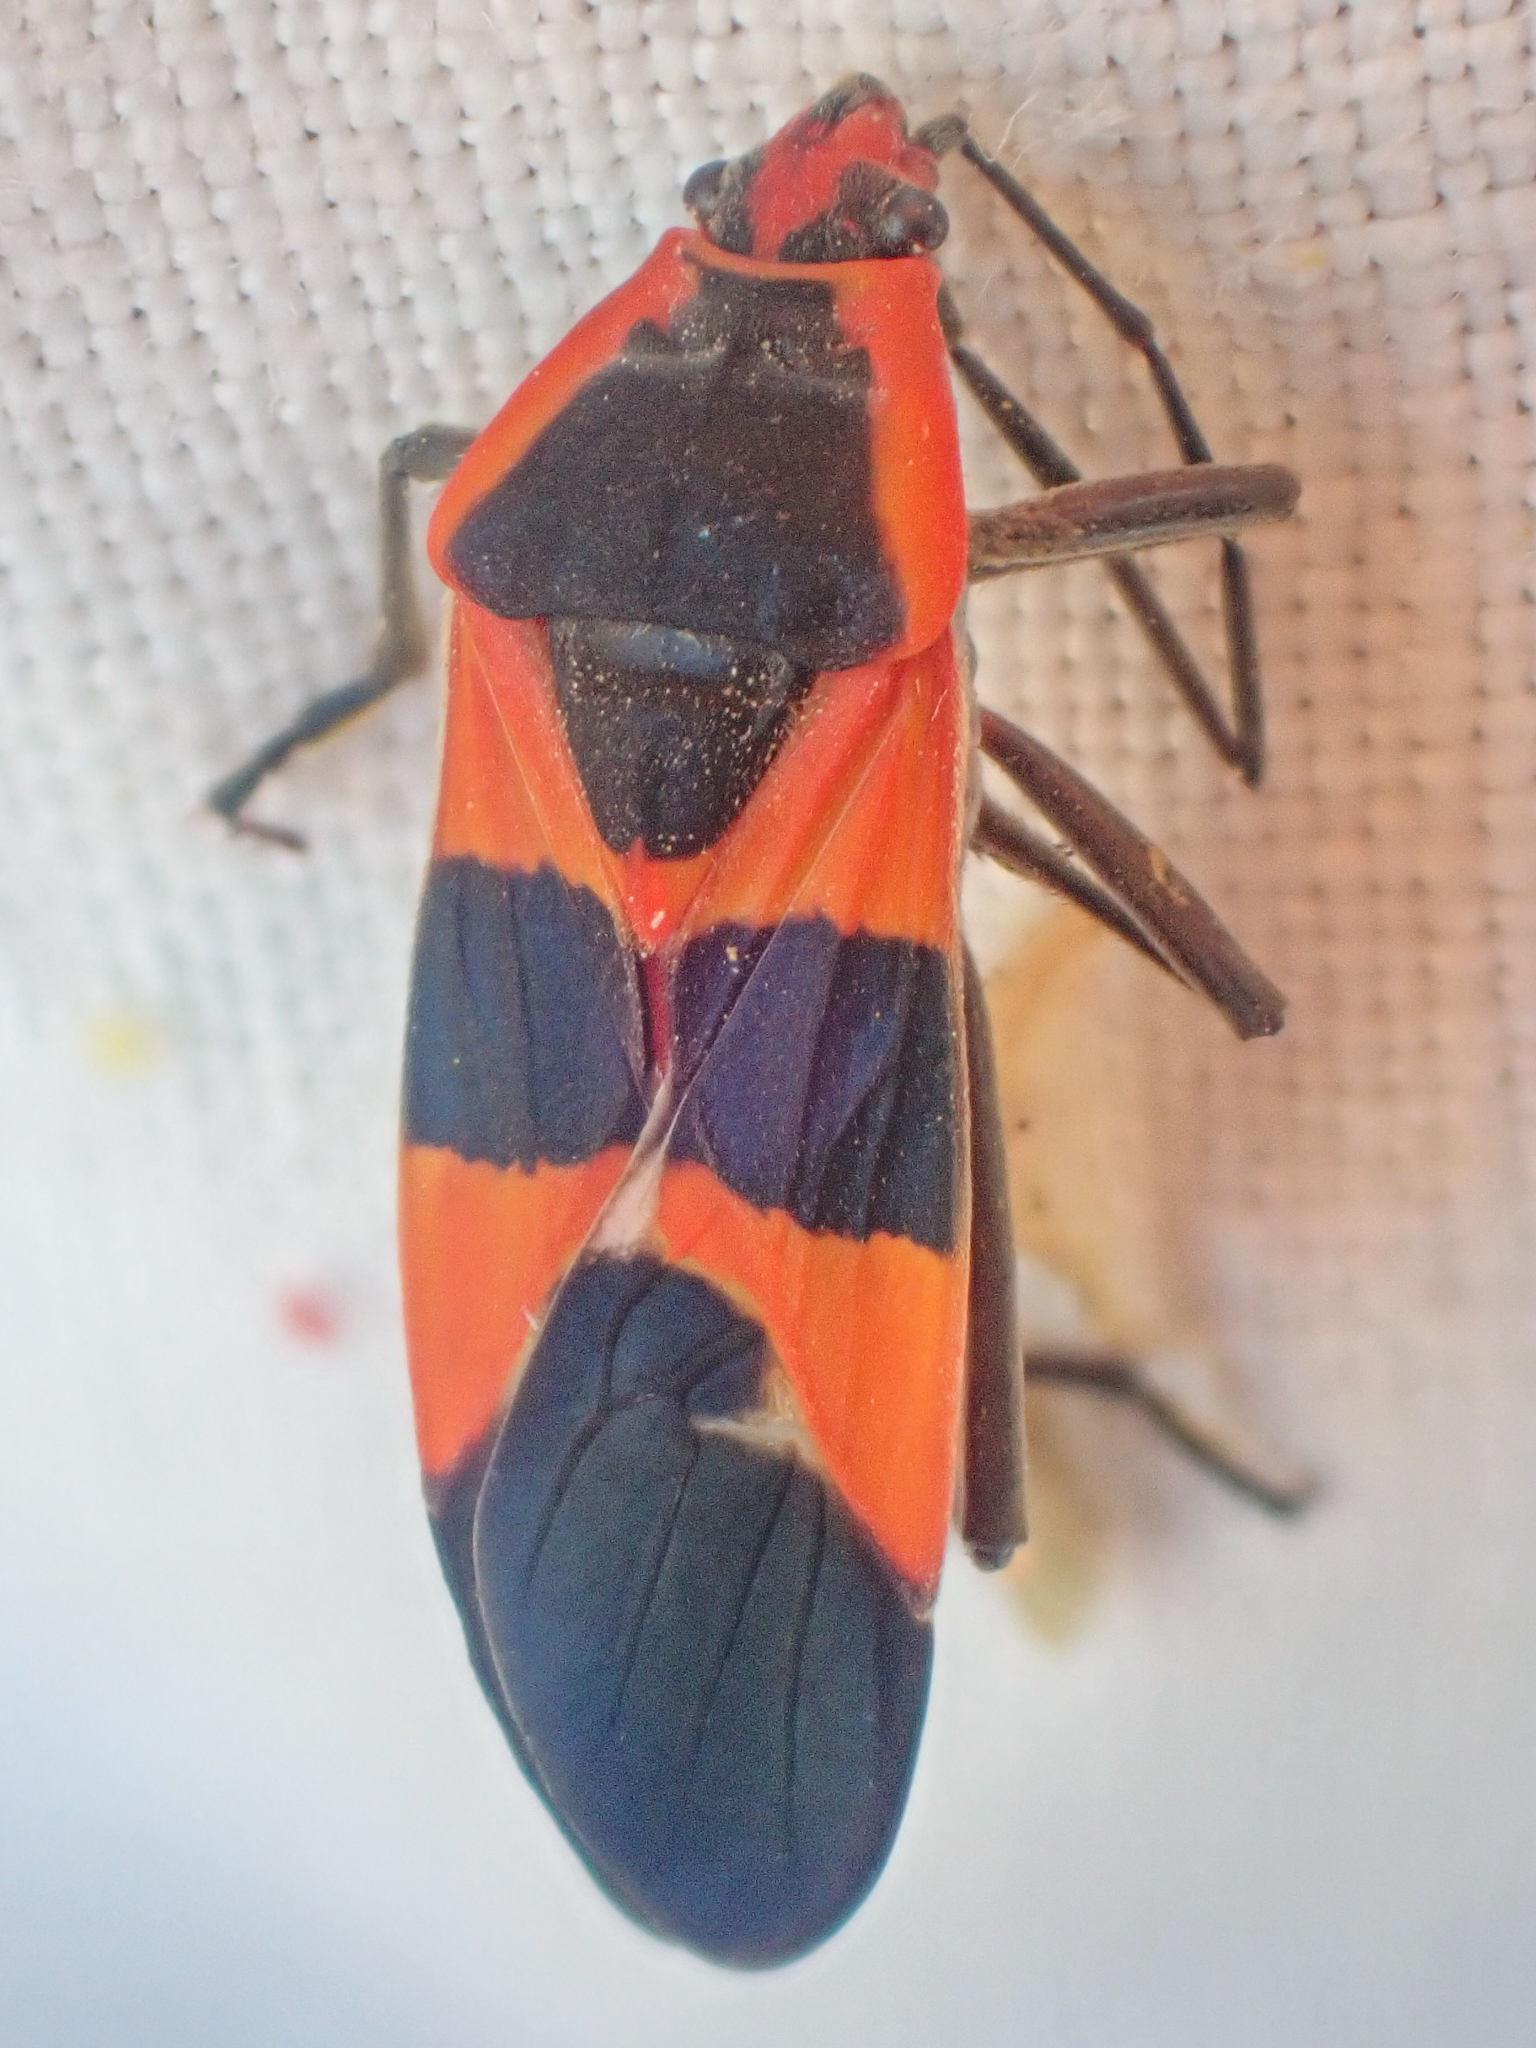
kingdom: Animalia
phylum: Arthropoda
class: Insecta
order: Hemiptera
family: Lygaeidae
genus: Oncopeltus
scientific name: Oncopeltus fasciatus
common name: Large milkweed bug
